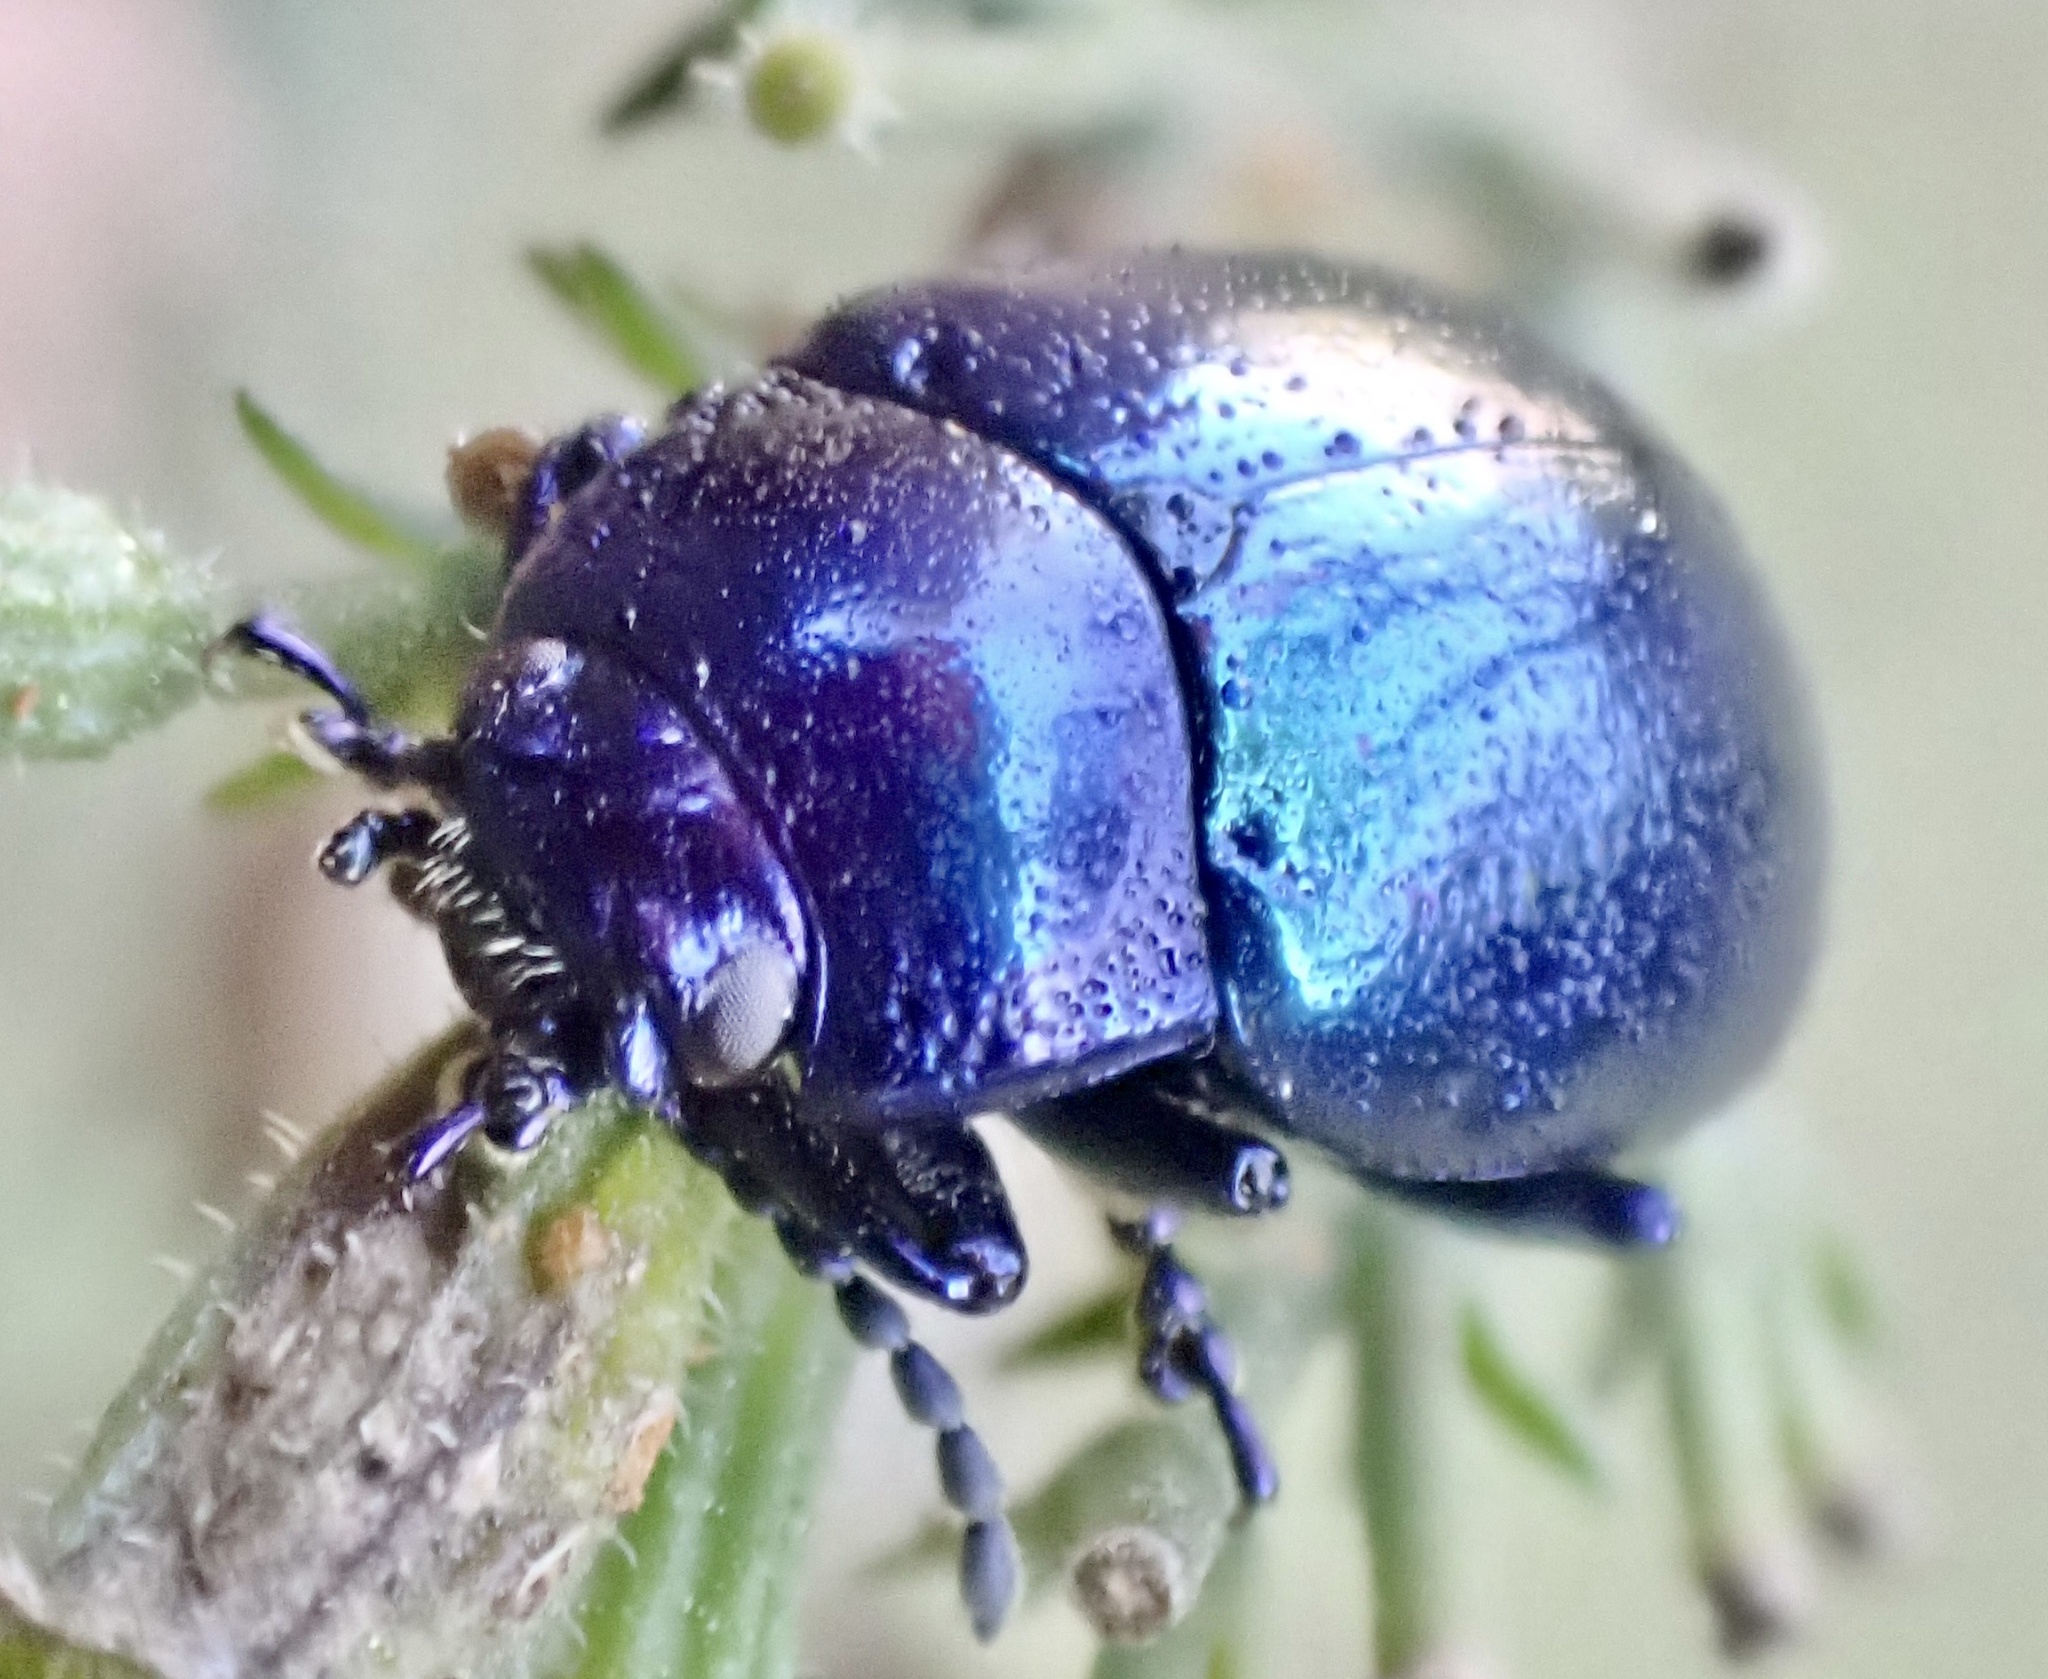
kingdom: Animalia
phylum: Arthropoda
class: Insecta
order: Coleoptera
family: Chrysomelidae
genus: Chrysolina
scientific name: Chrysolina coerulans
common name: Blue mint beetle
